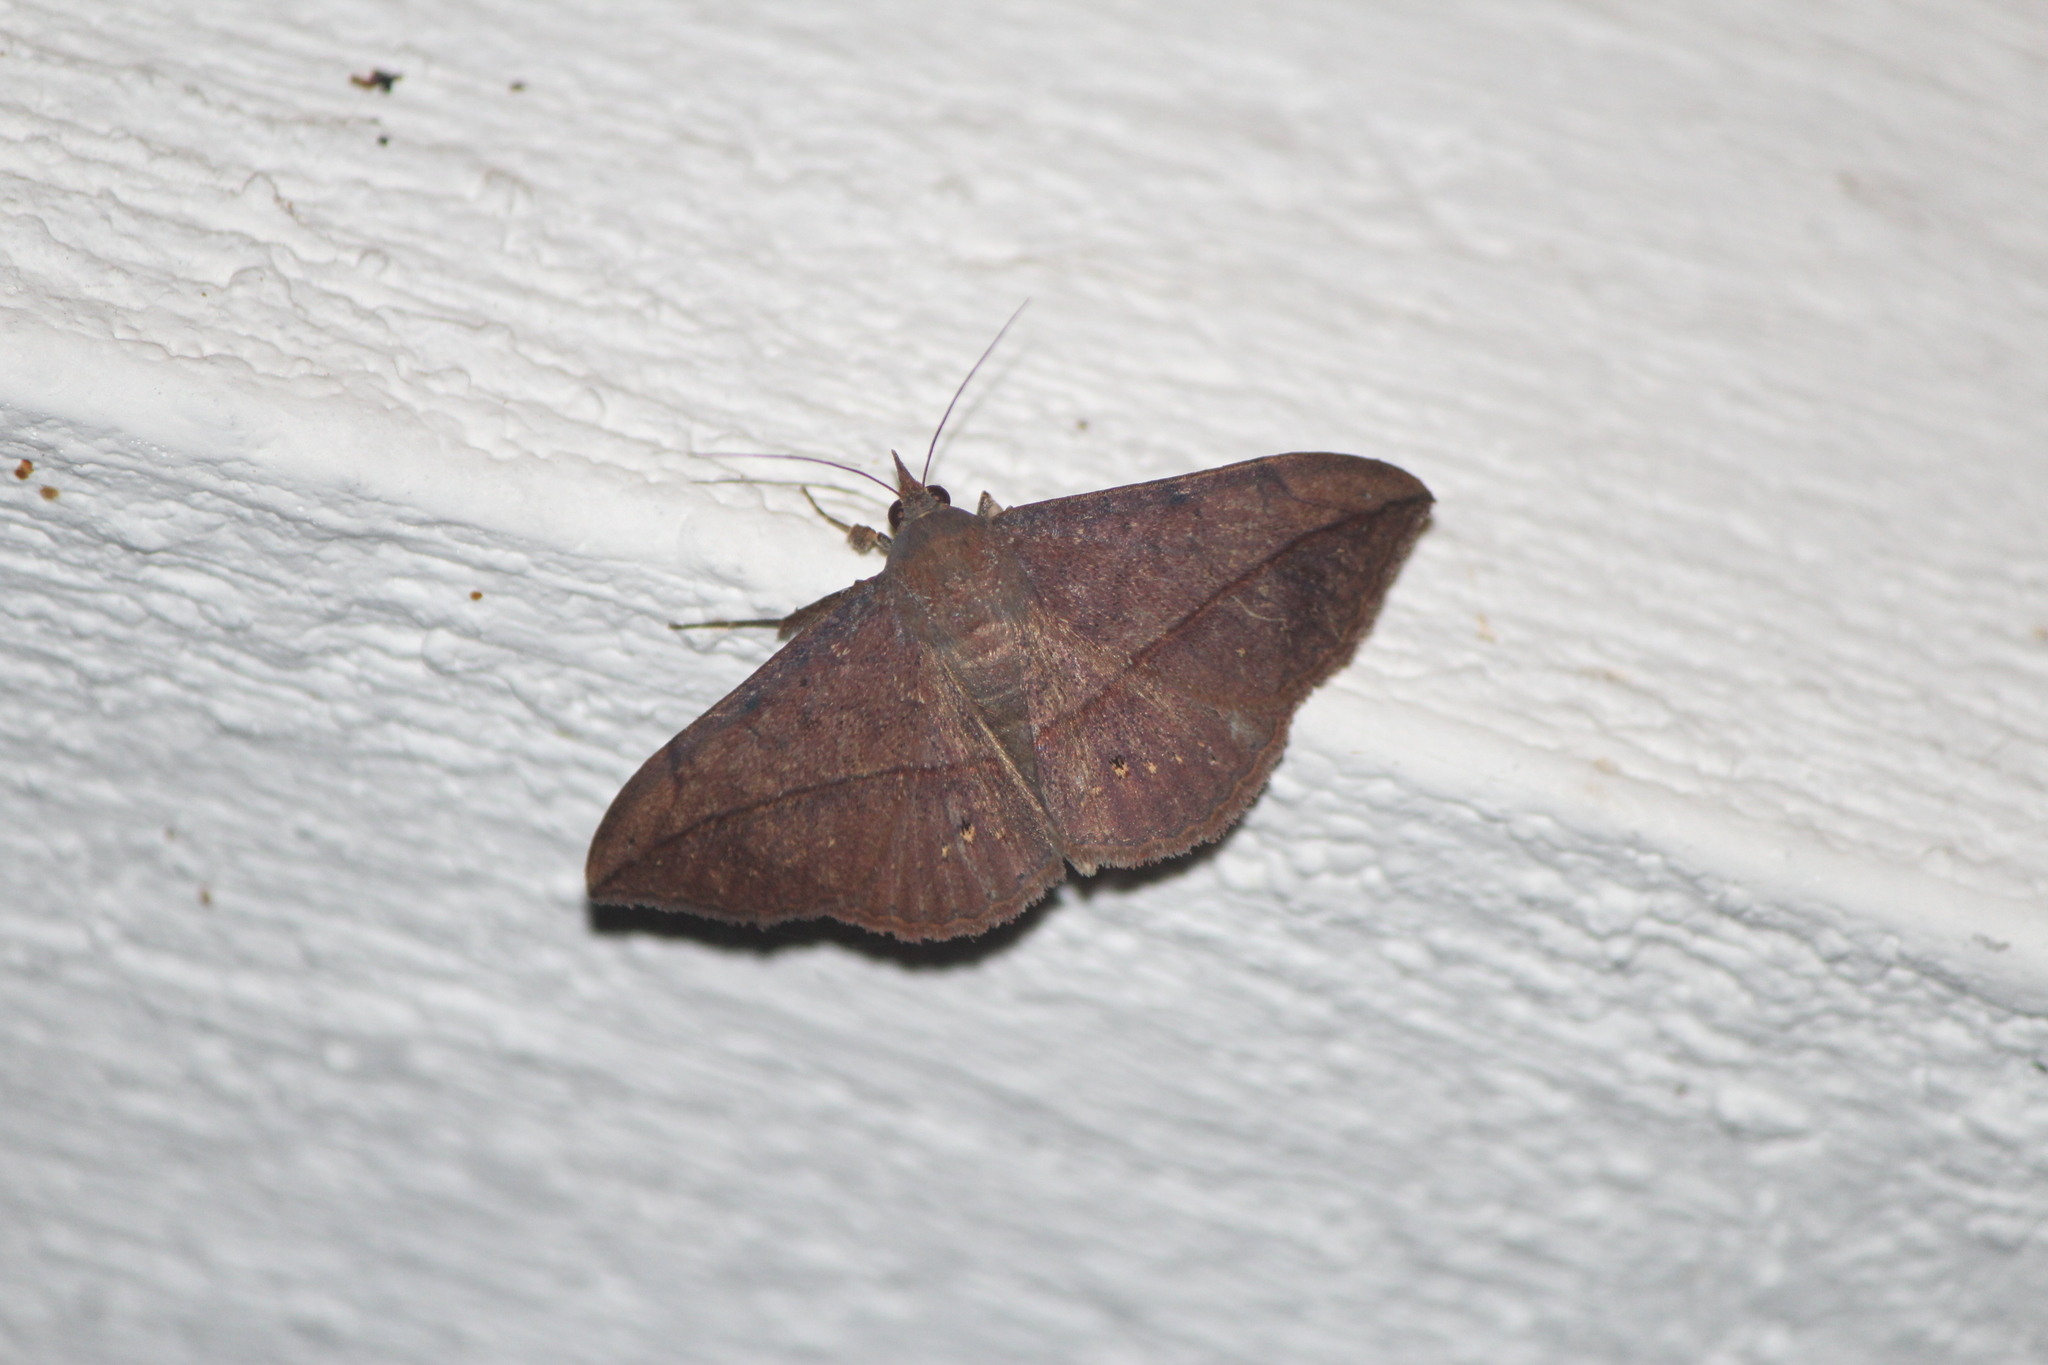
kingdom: Animalia
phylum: Arthropoda
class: Insecta
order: Lepidoptera
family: Erebidae
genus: Anticarsia
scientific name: Anticarsia gemmatalis
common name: Cutworm moth
